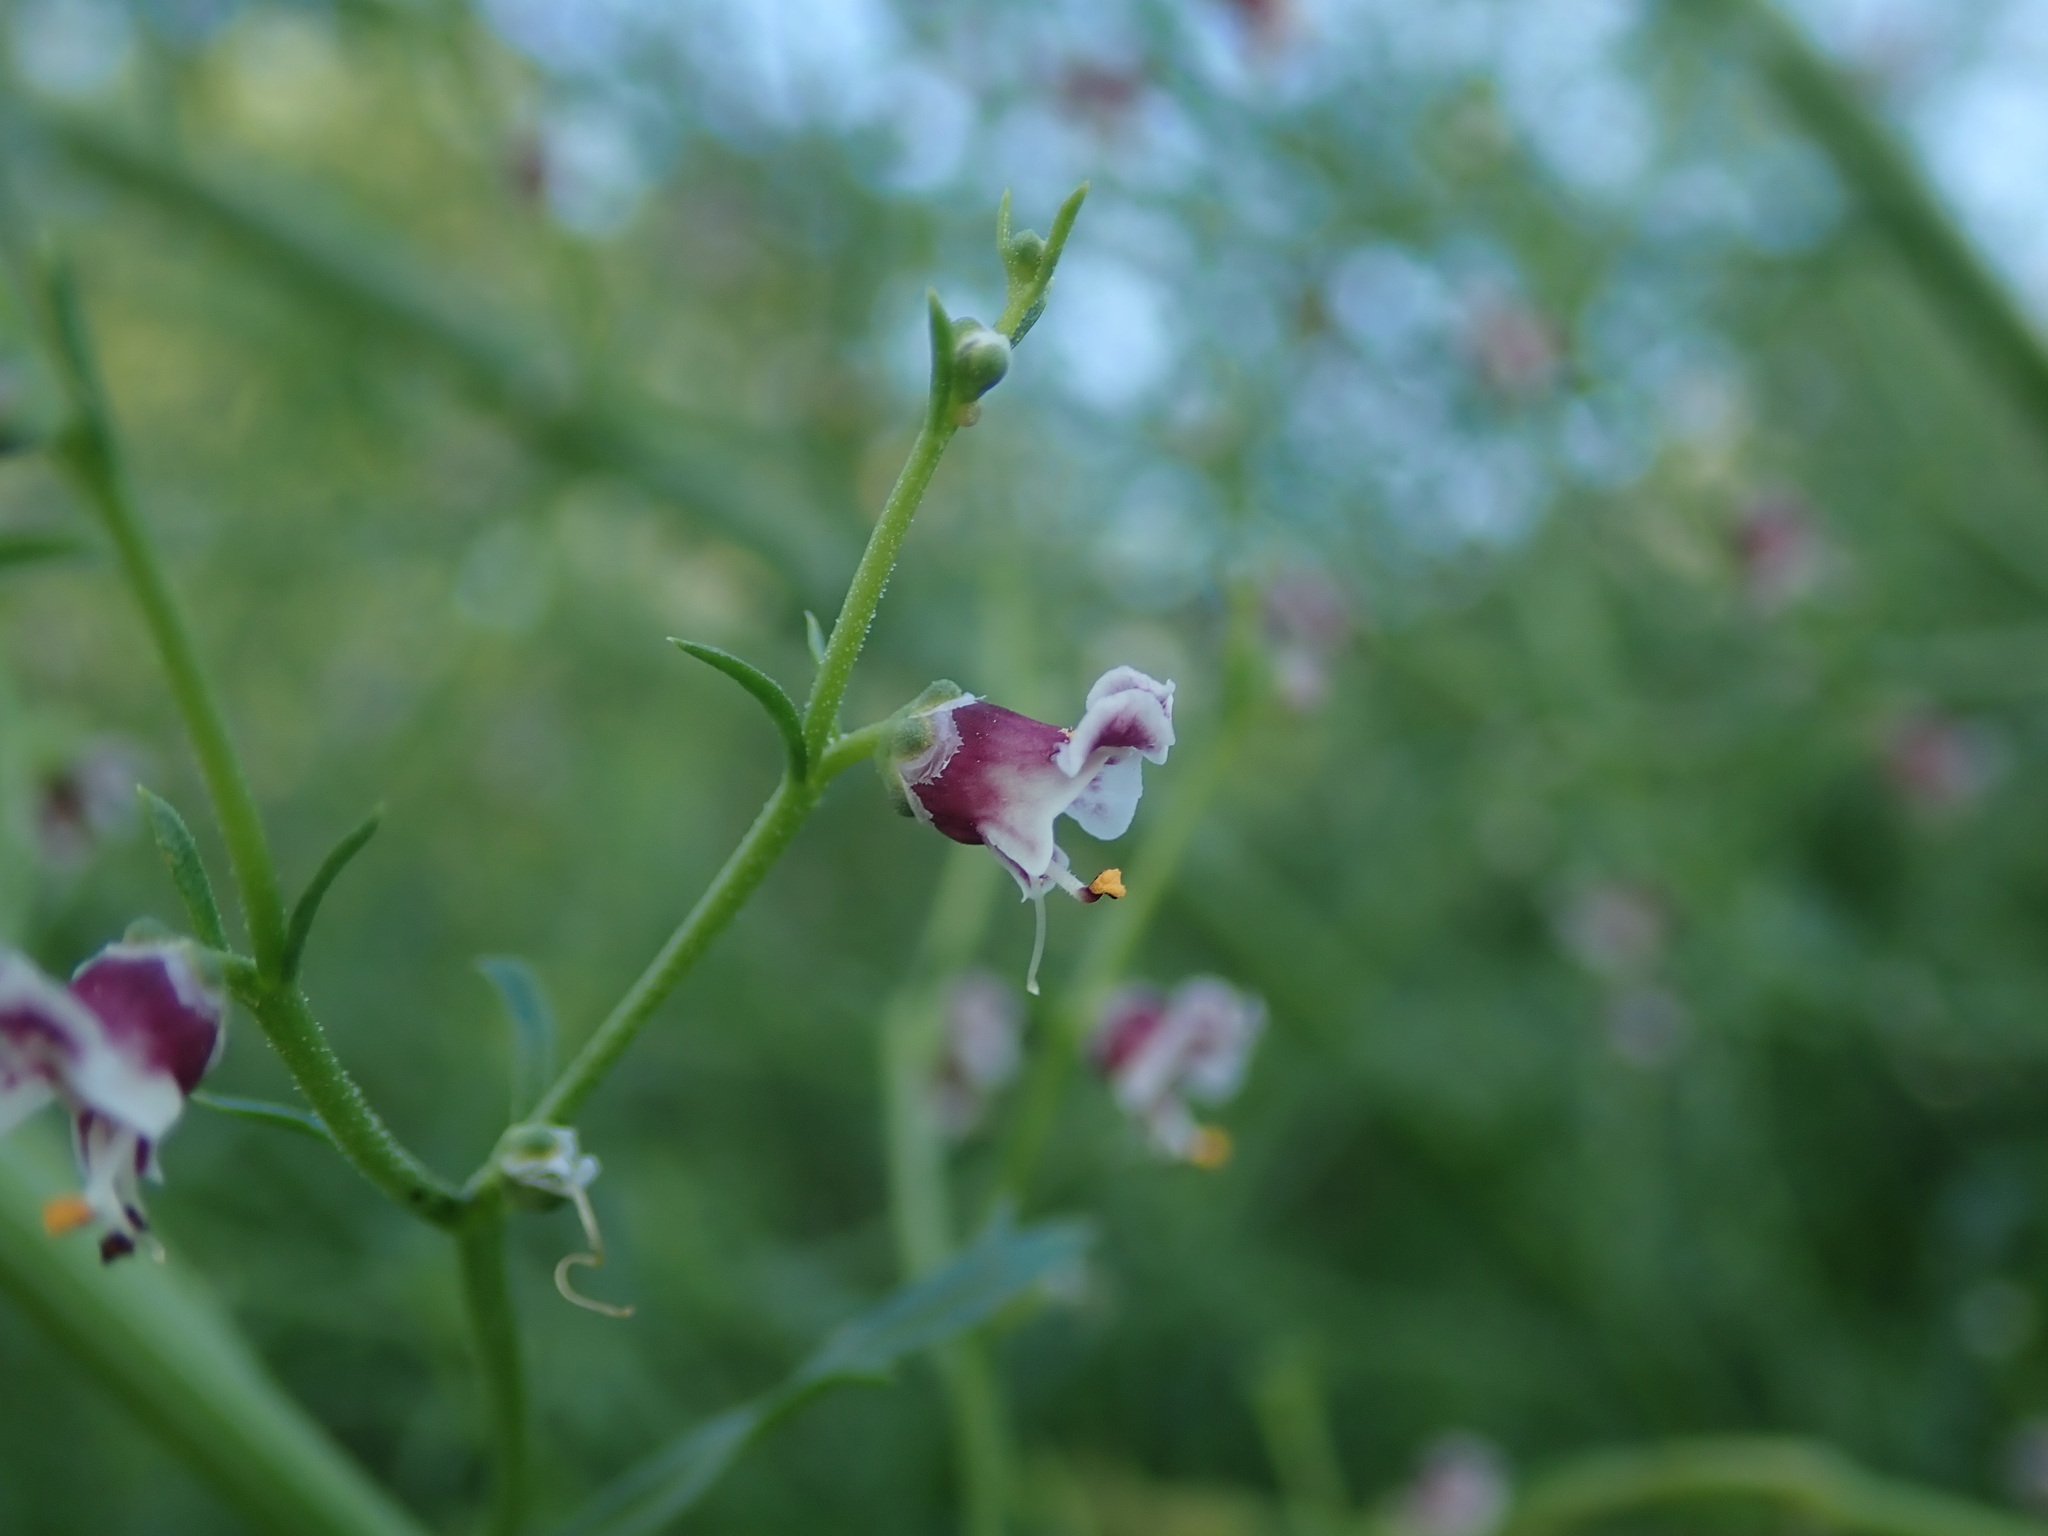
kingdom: Plantae
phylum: Tracheophyta
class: Magnoliopsida
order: Lamiales
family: Scrophulariaceae
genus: Scrophularia
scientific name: Scrophularia canina
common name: French figwort
